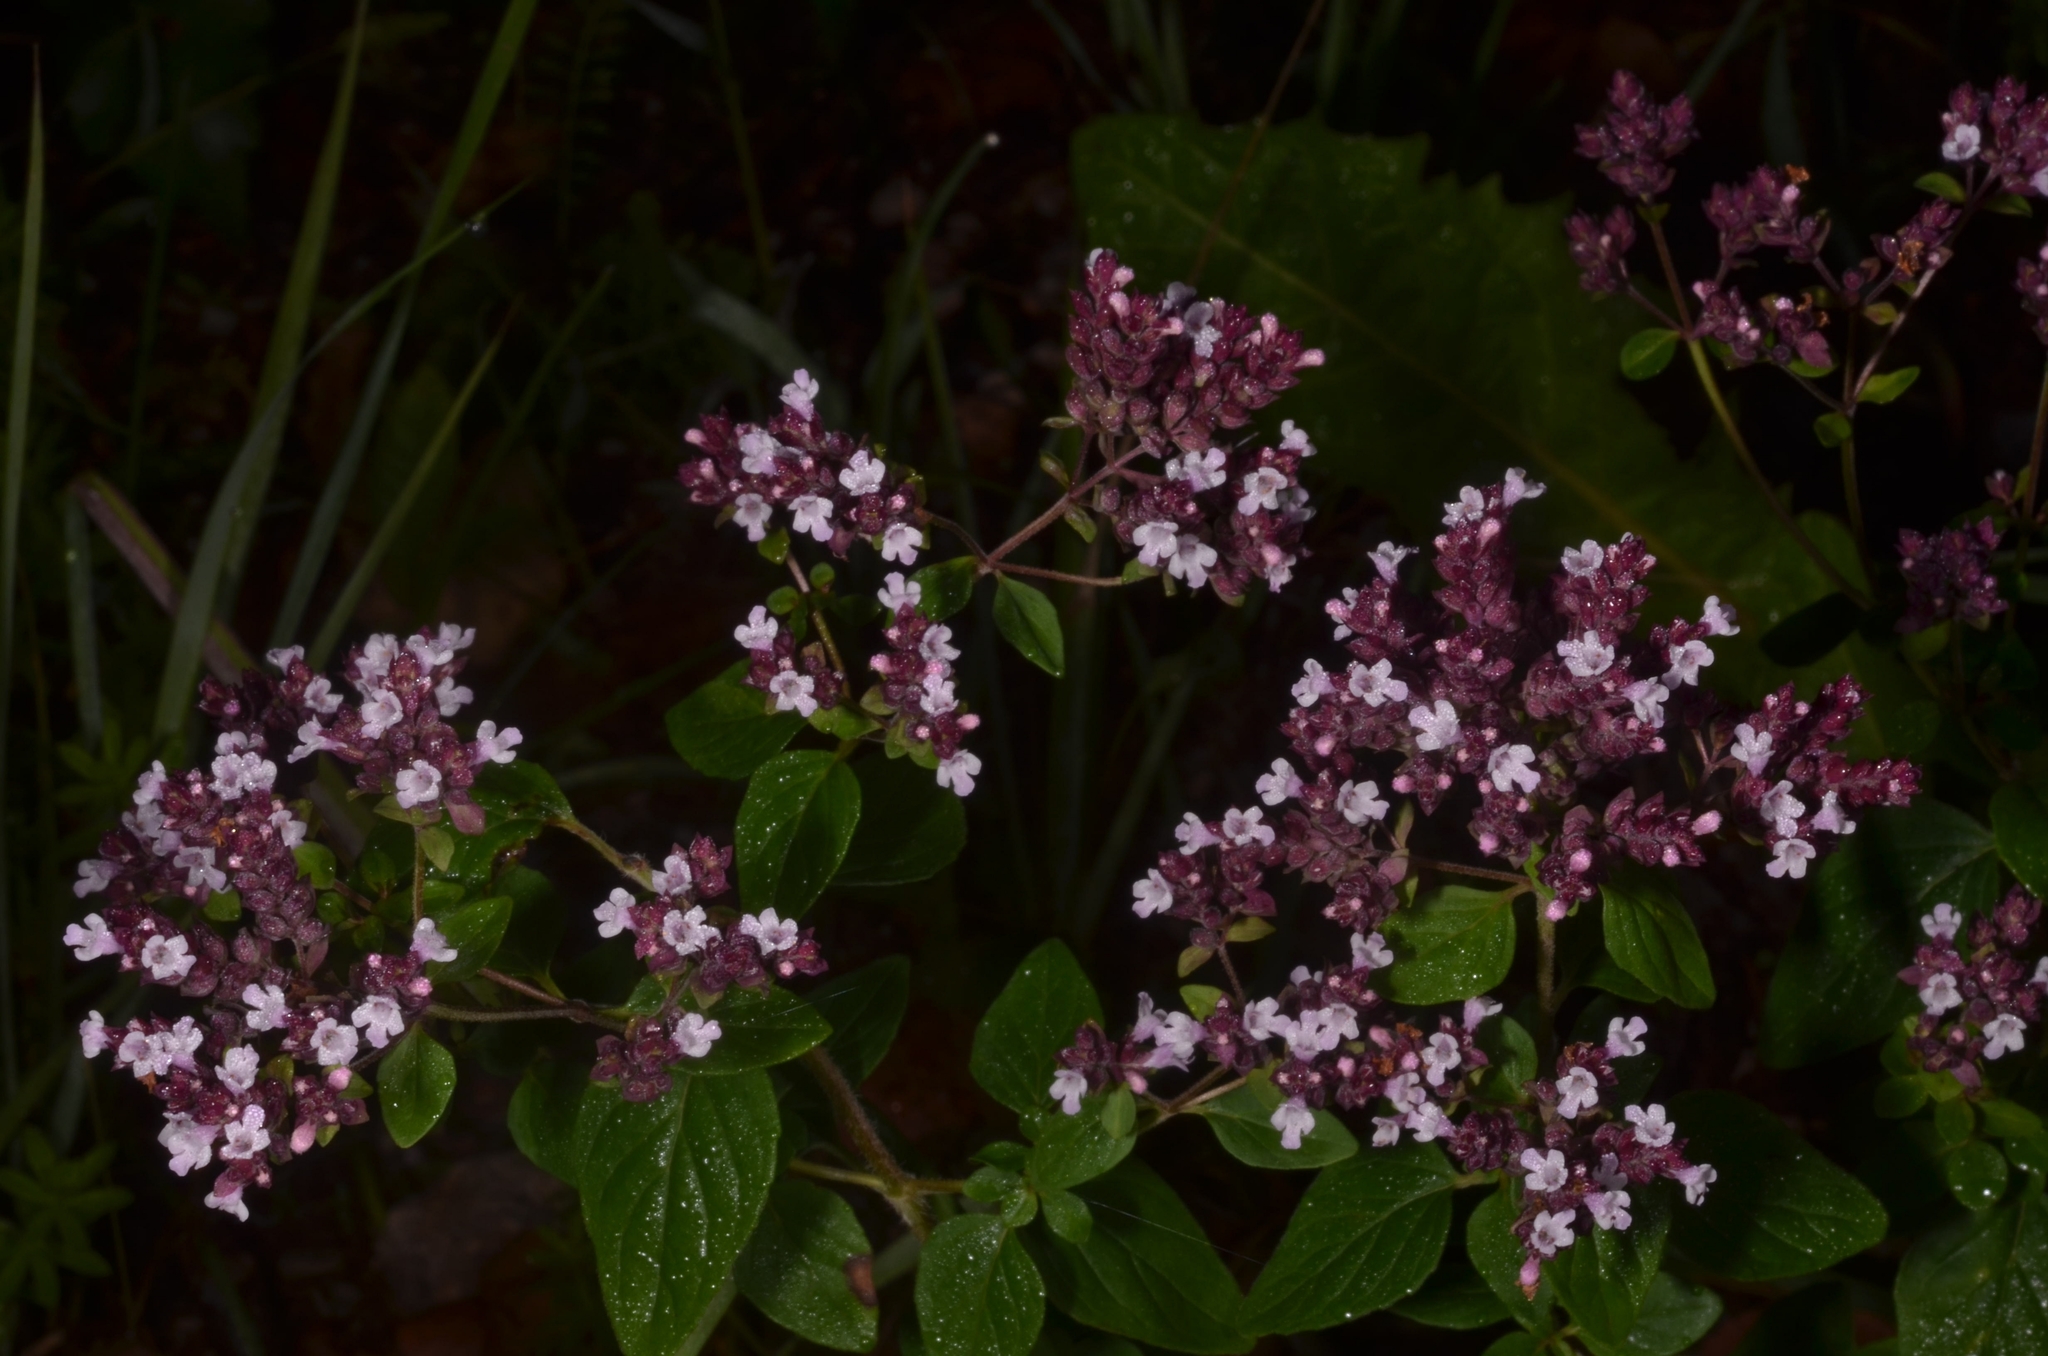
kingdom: Plantae
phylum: Tracheophyta
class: Magnoliopsida
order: Lamiales
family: Lamiaceae
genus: Origanum
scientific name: Origanum vulgare
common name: Wild marjoram
